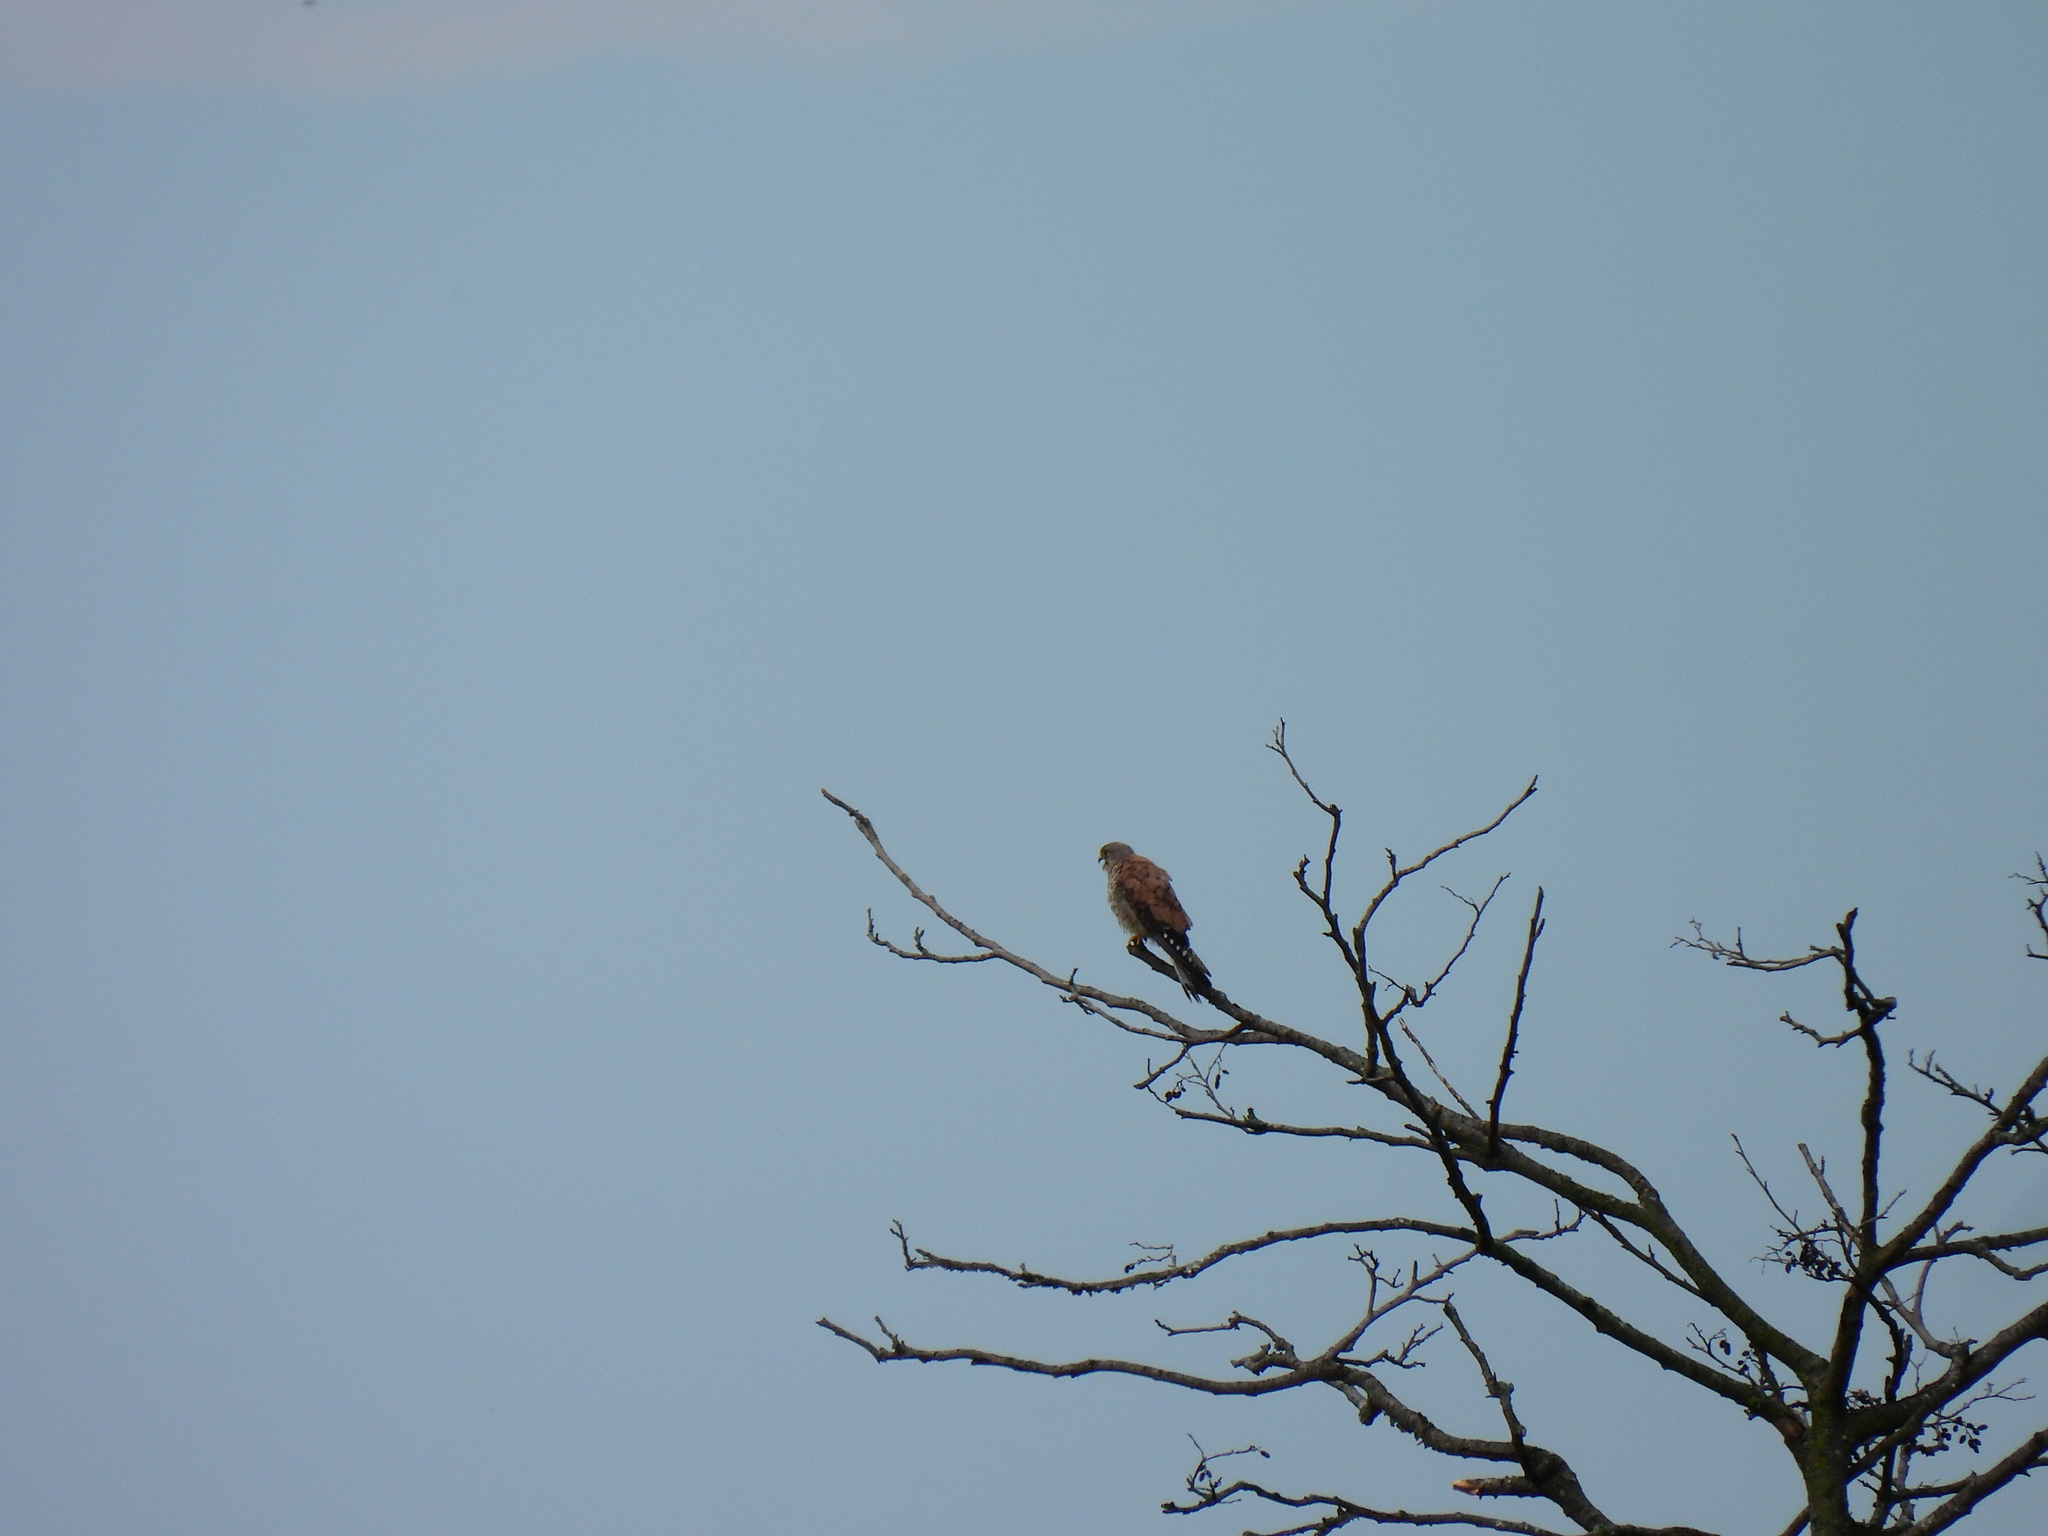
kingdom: Animalia
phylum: Chordata
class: Aves
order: Falconiformes
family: Falconidae
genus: Falco
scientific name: Falco tinnunculus
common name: Common kestrel
